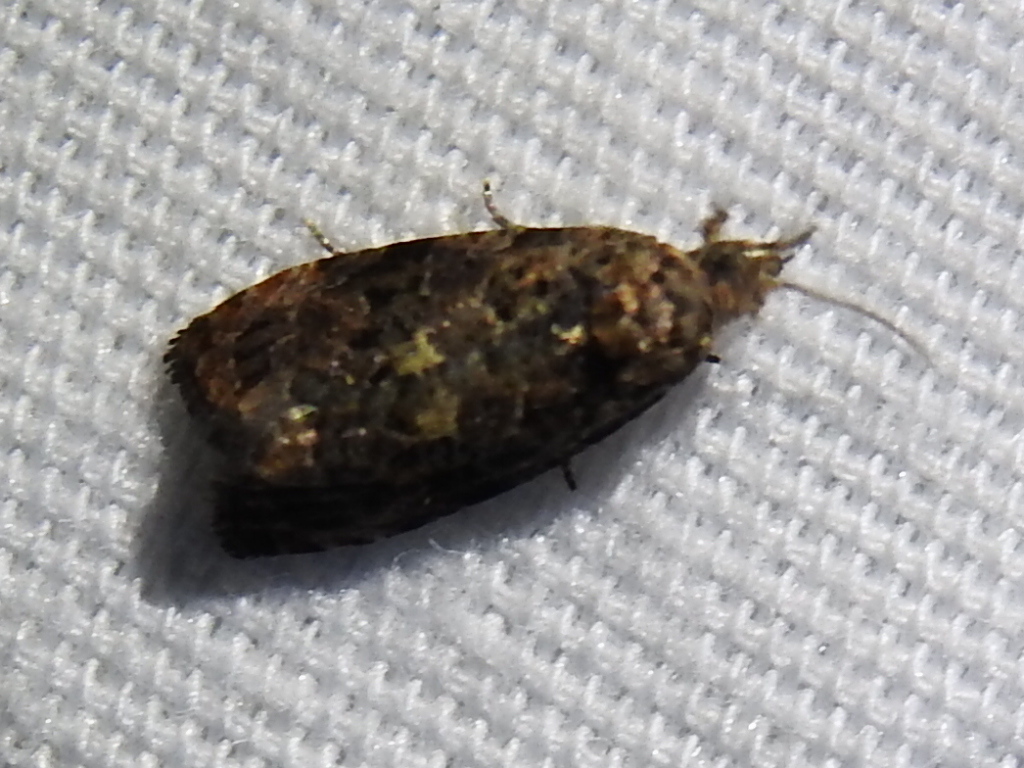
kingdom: Animalia
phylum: Arthropoda
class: Insecta
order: Lepidoptera
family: Tortricidae
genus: Endothenia
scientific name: Endothenia hebesana
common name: Verbena bud moth
